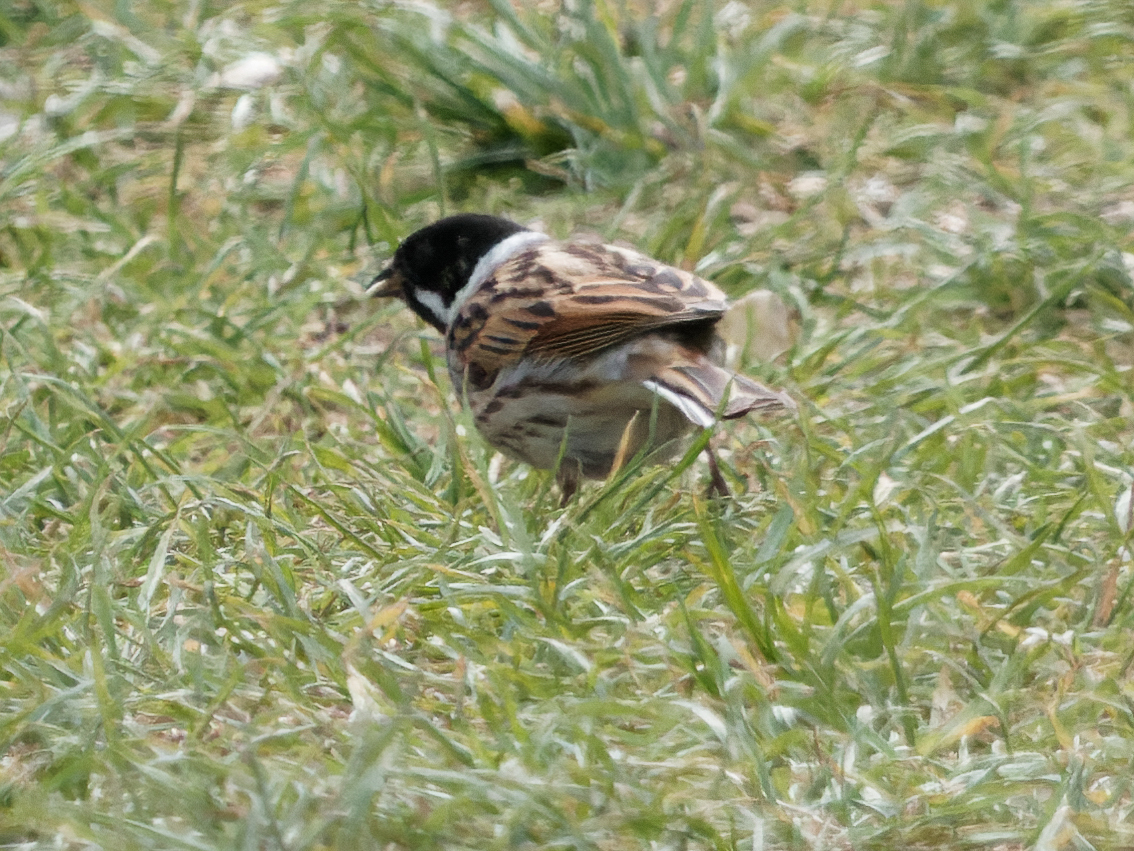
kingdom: Animalia
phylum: Chordata
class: Aves
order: Passeriformes
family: Emberizidae
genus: Emberiza
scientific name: Emberiza schoeniclus
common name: Reed bunting
